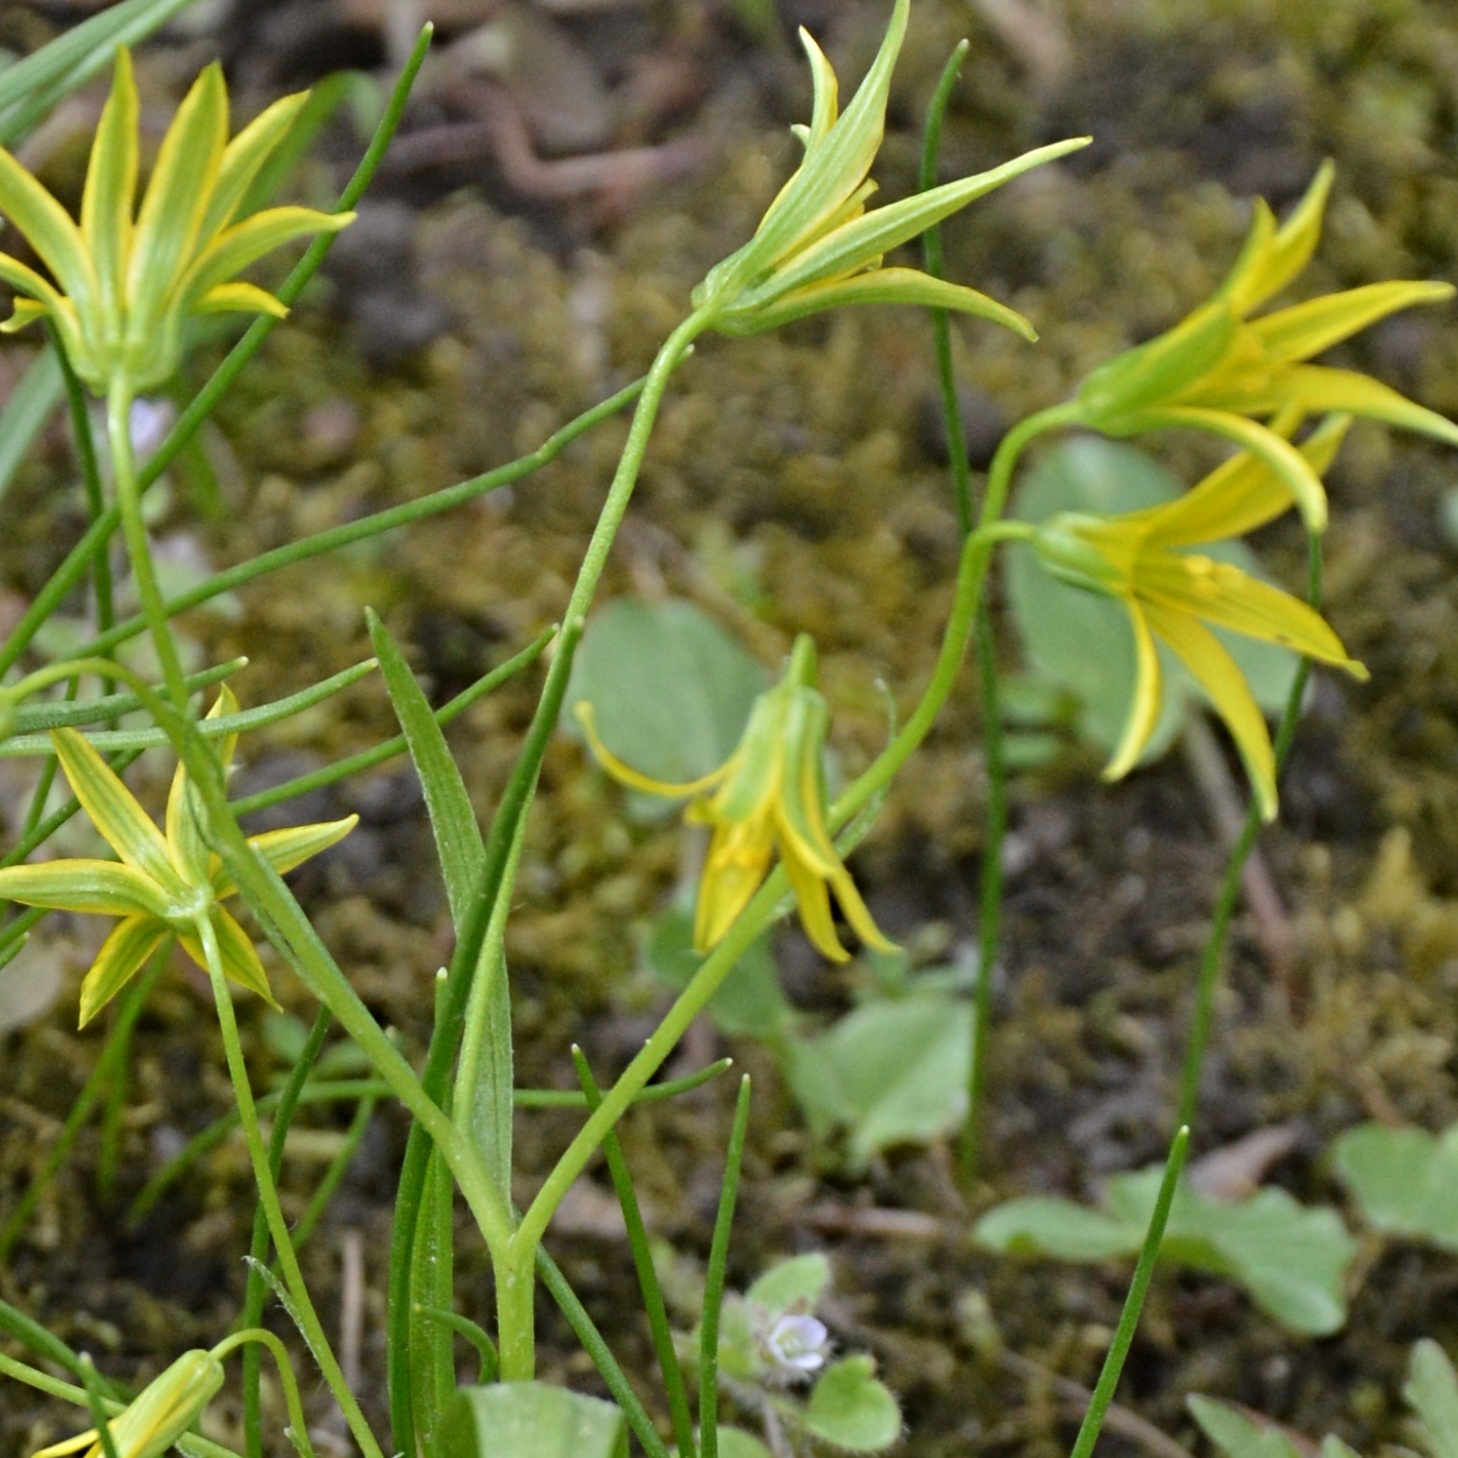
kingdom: Plantae
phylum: Tracheophyta
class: Liliopsida
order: Liliales
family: Liliaceae
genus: Gagea
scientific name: Gagea minima
